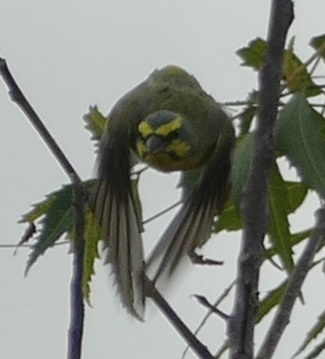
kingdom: Animalia
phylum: Chordata
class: Aves
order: Passeriformes
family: Fringillidae
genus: Crithagra
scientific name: Crithagra mozambica
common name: Yellow-fronted canary
